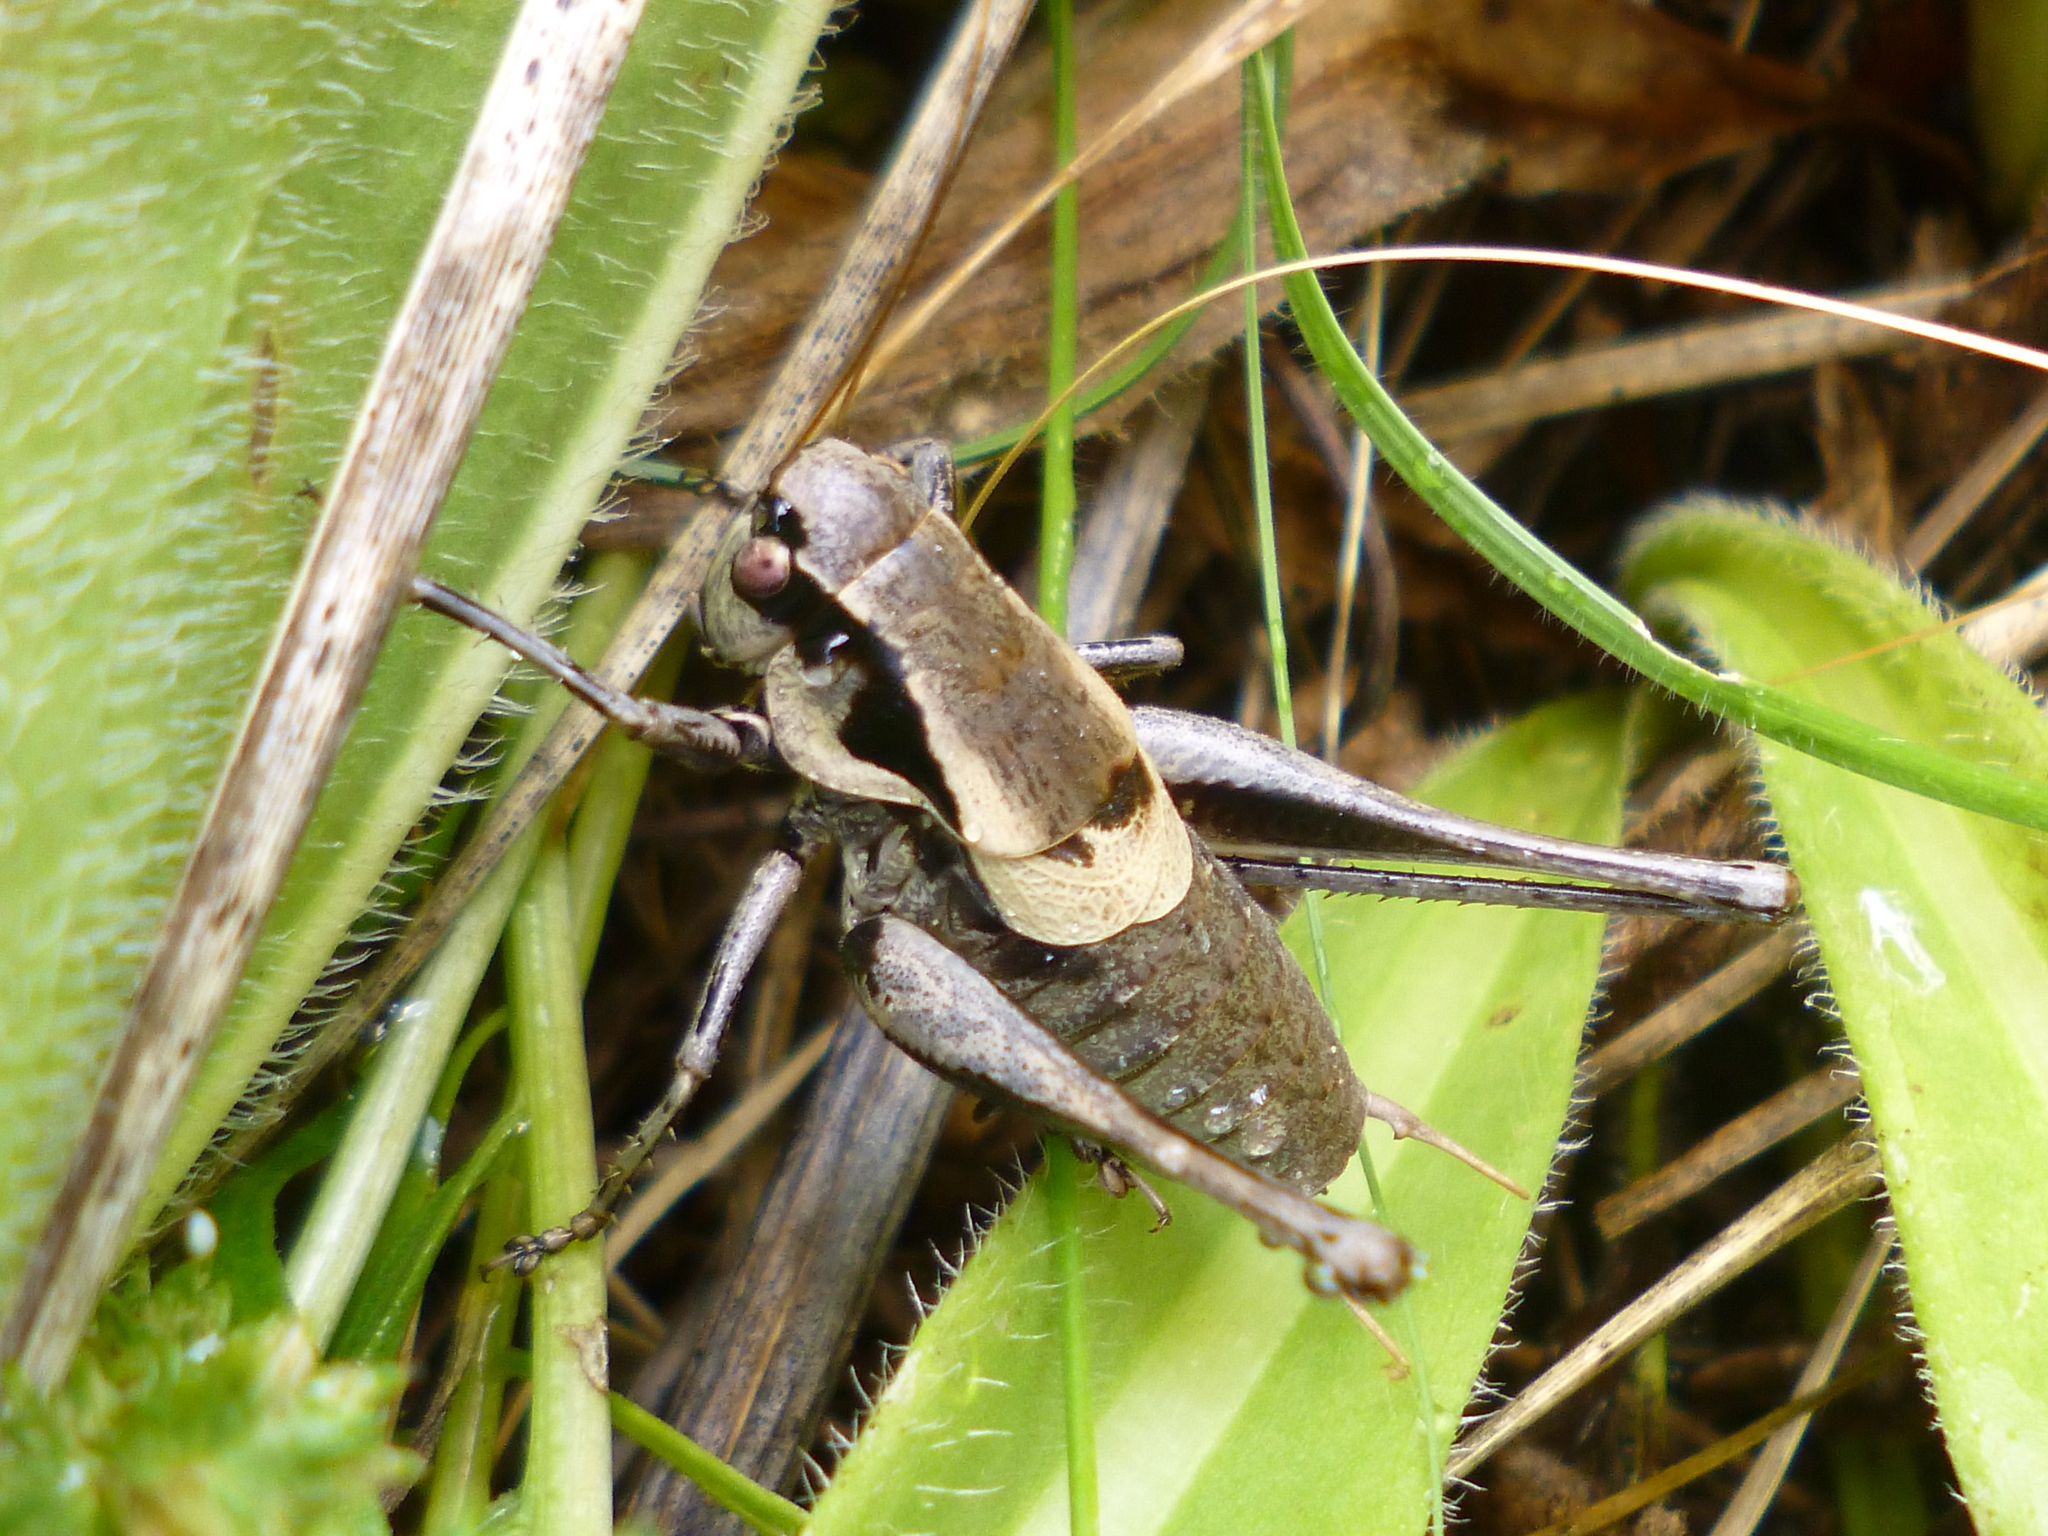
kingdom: Animalia
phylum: Arthropoda
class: Insecta
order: Orthoptera
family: Tettigoniidae
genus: Pholidoptera
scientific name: Pholidoptera dalmatica
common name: Dalmatian dark bush-cricket
